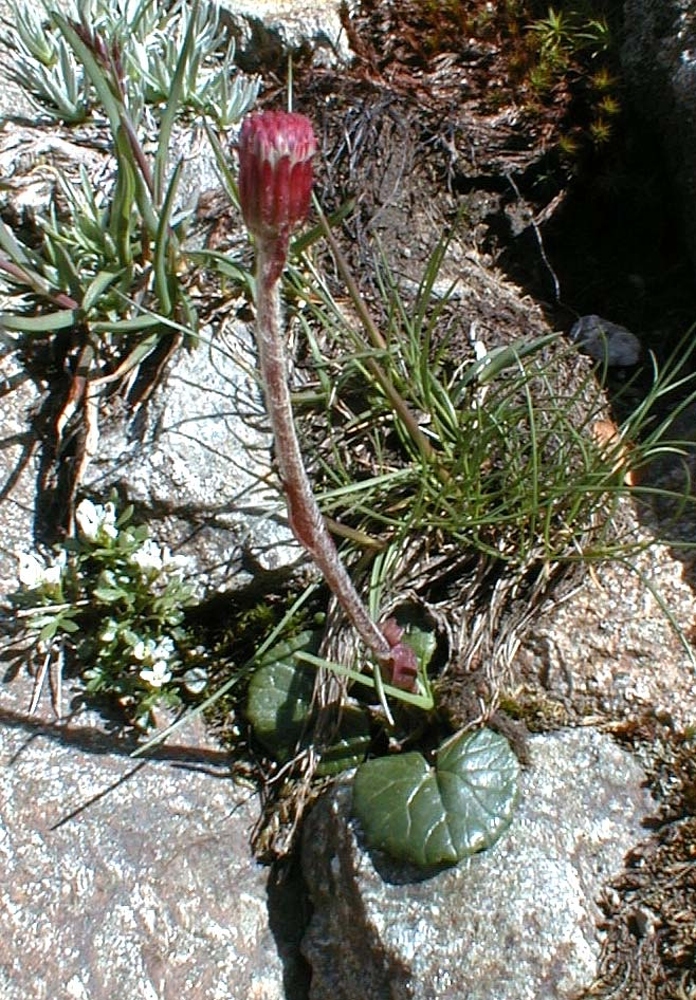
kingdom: Plantae
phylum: Tracheophyta
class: Magnoliopsida
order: Asterales
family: Asteraceae
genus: Homogyne
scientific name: Homogyne alpina
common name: Purple colt's-foot
